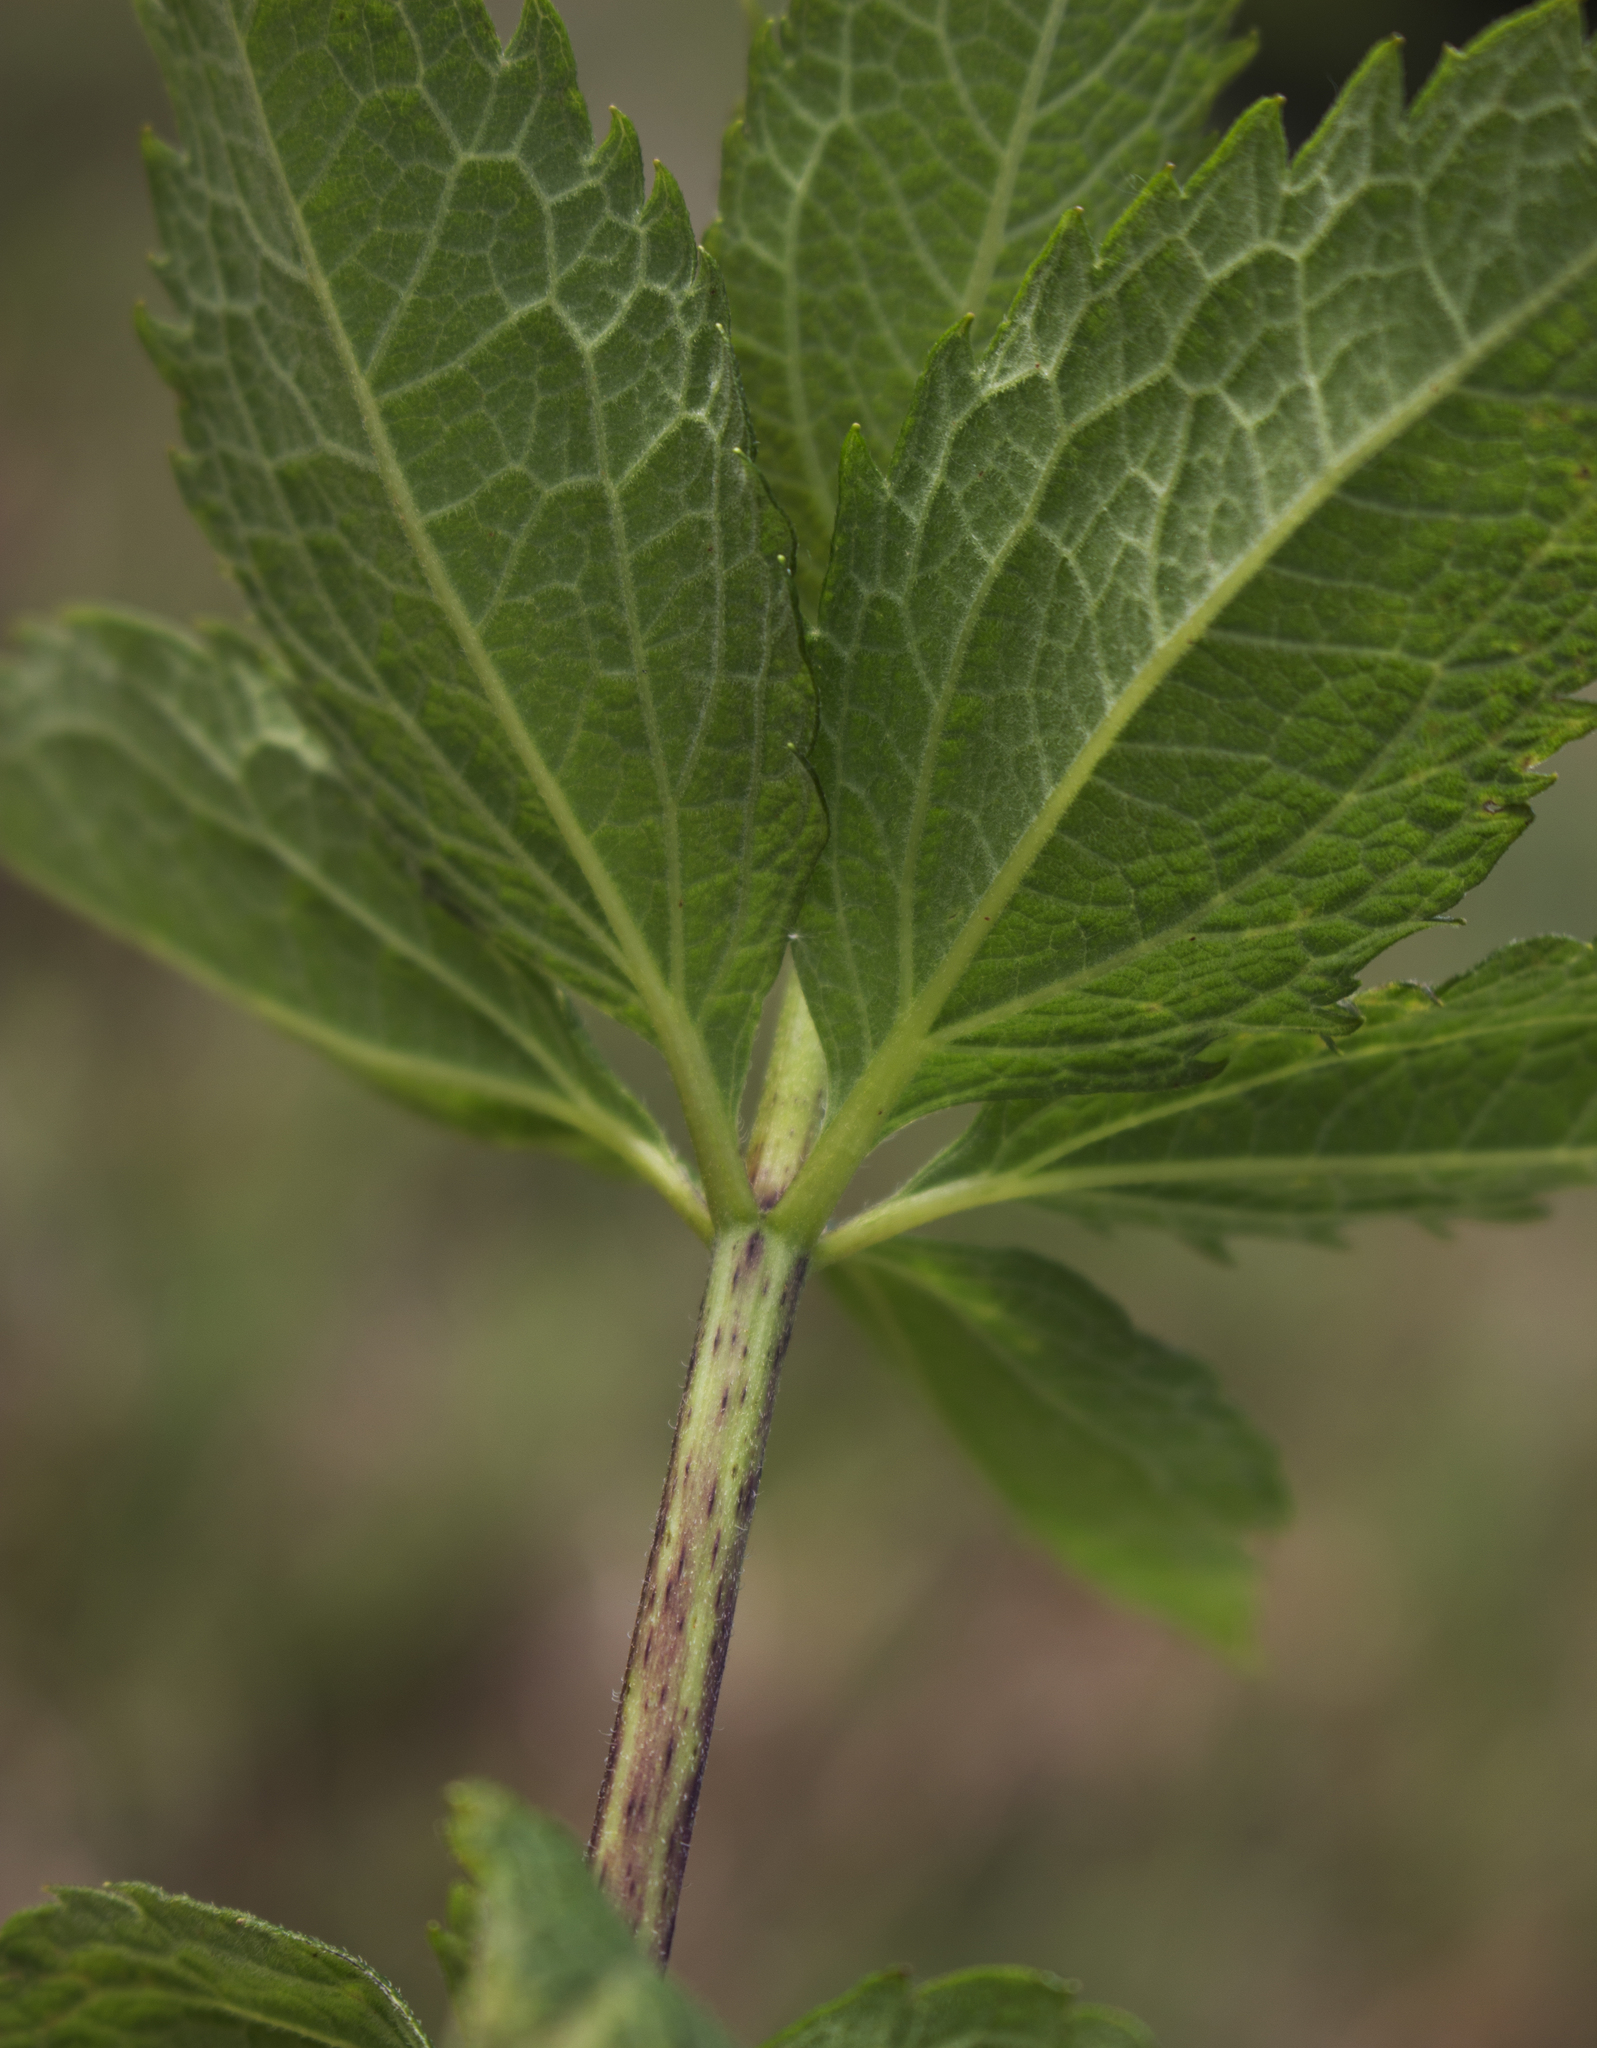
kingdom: Plantae
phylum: Tracheophyta
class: Magnoliopsida
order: Asterales
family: Asteraceae
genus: Eutrochium
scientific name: Eutrochium maculatum
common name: Spotted joe pye weed
